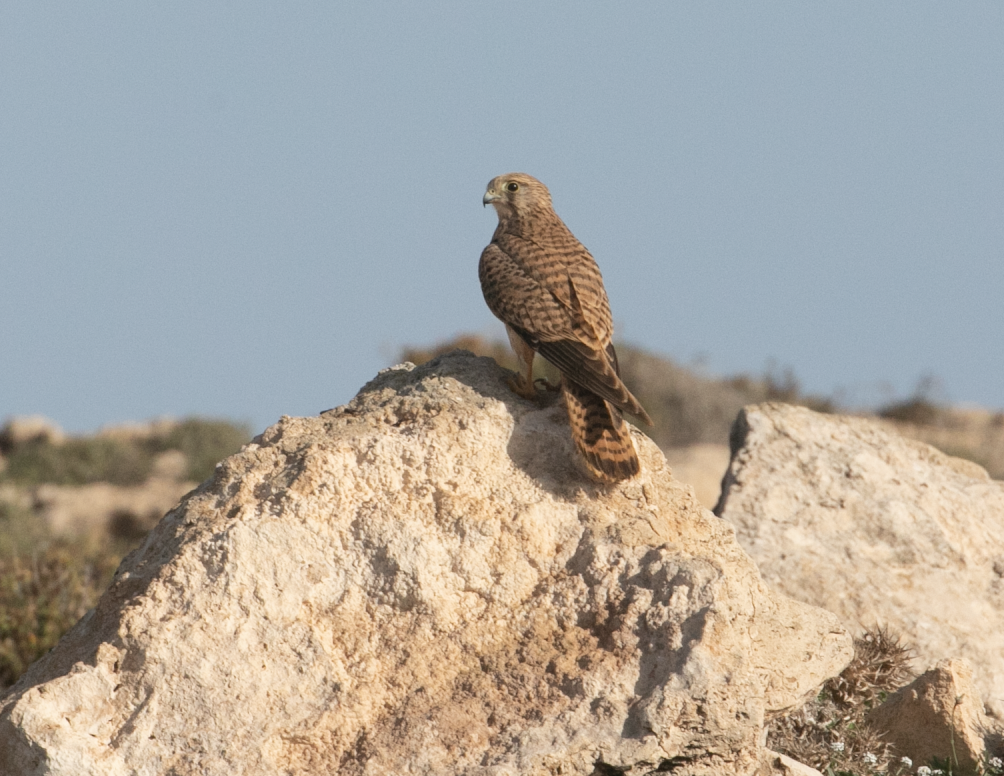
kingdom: Animalia
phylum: Chordata
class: Aves
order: Falconiformes
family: Falconidae
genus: Falco
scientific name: Falco tinnunculus
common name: Common kestrel
